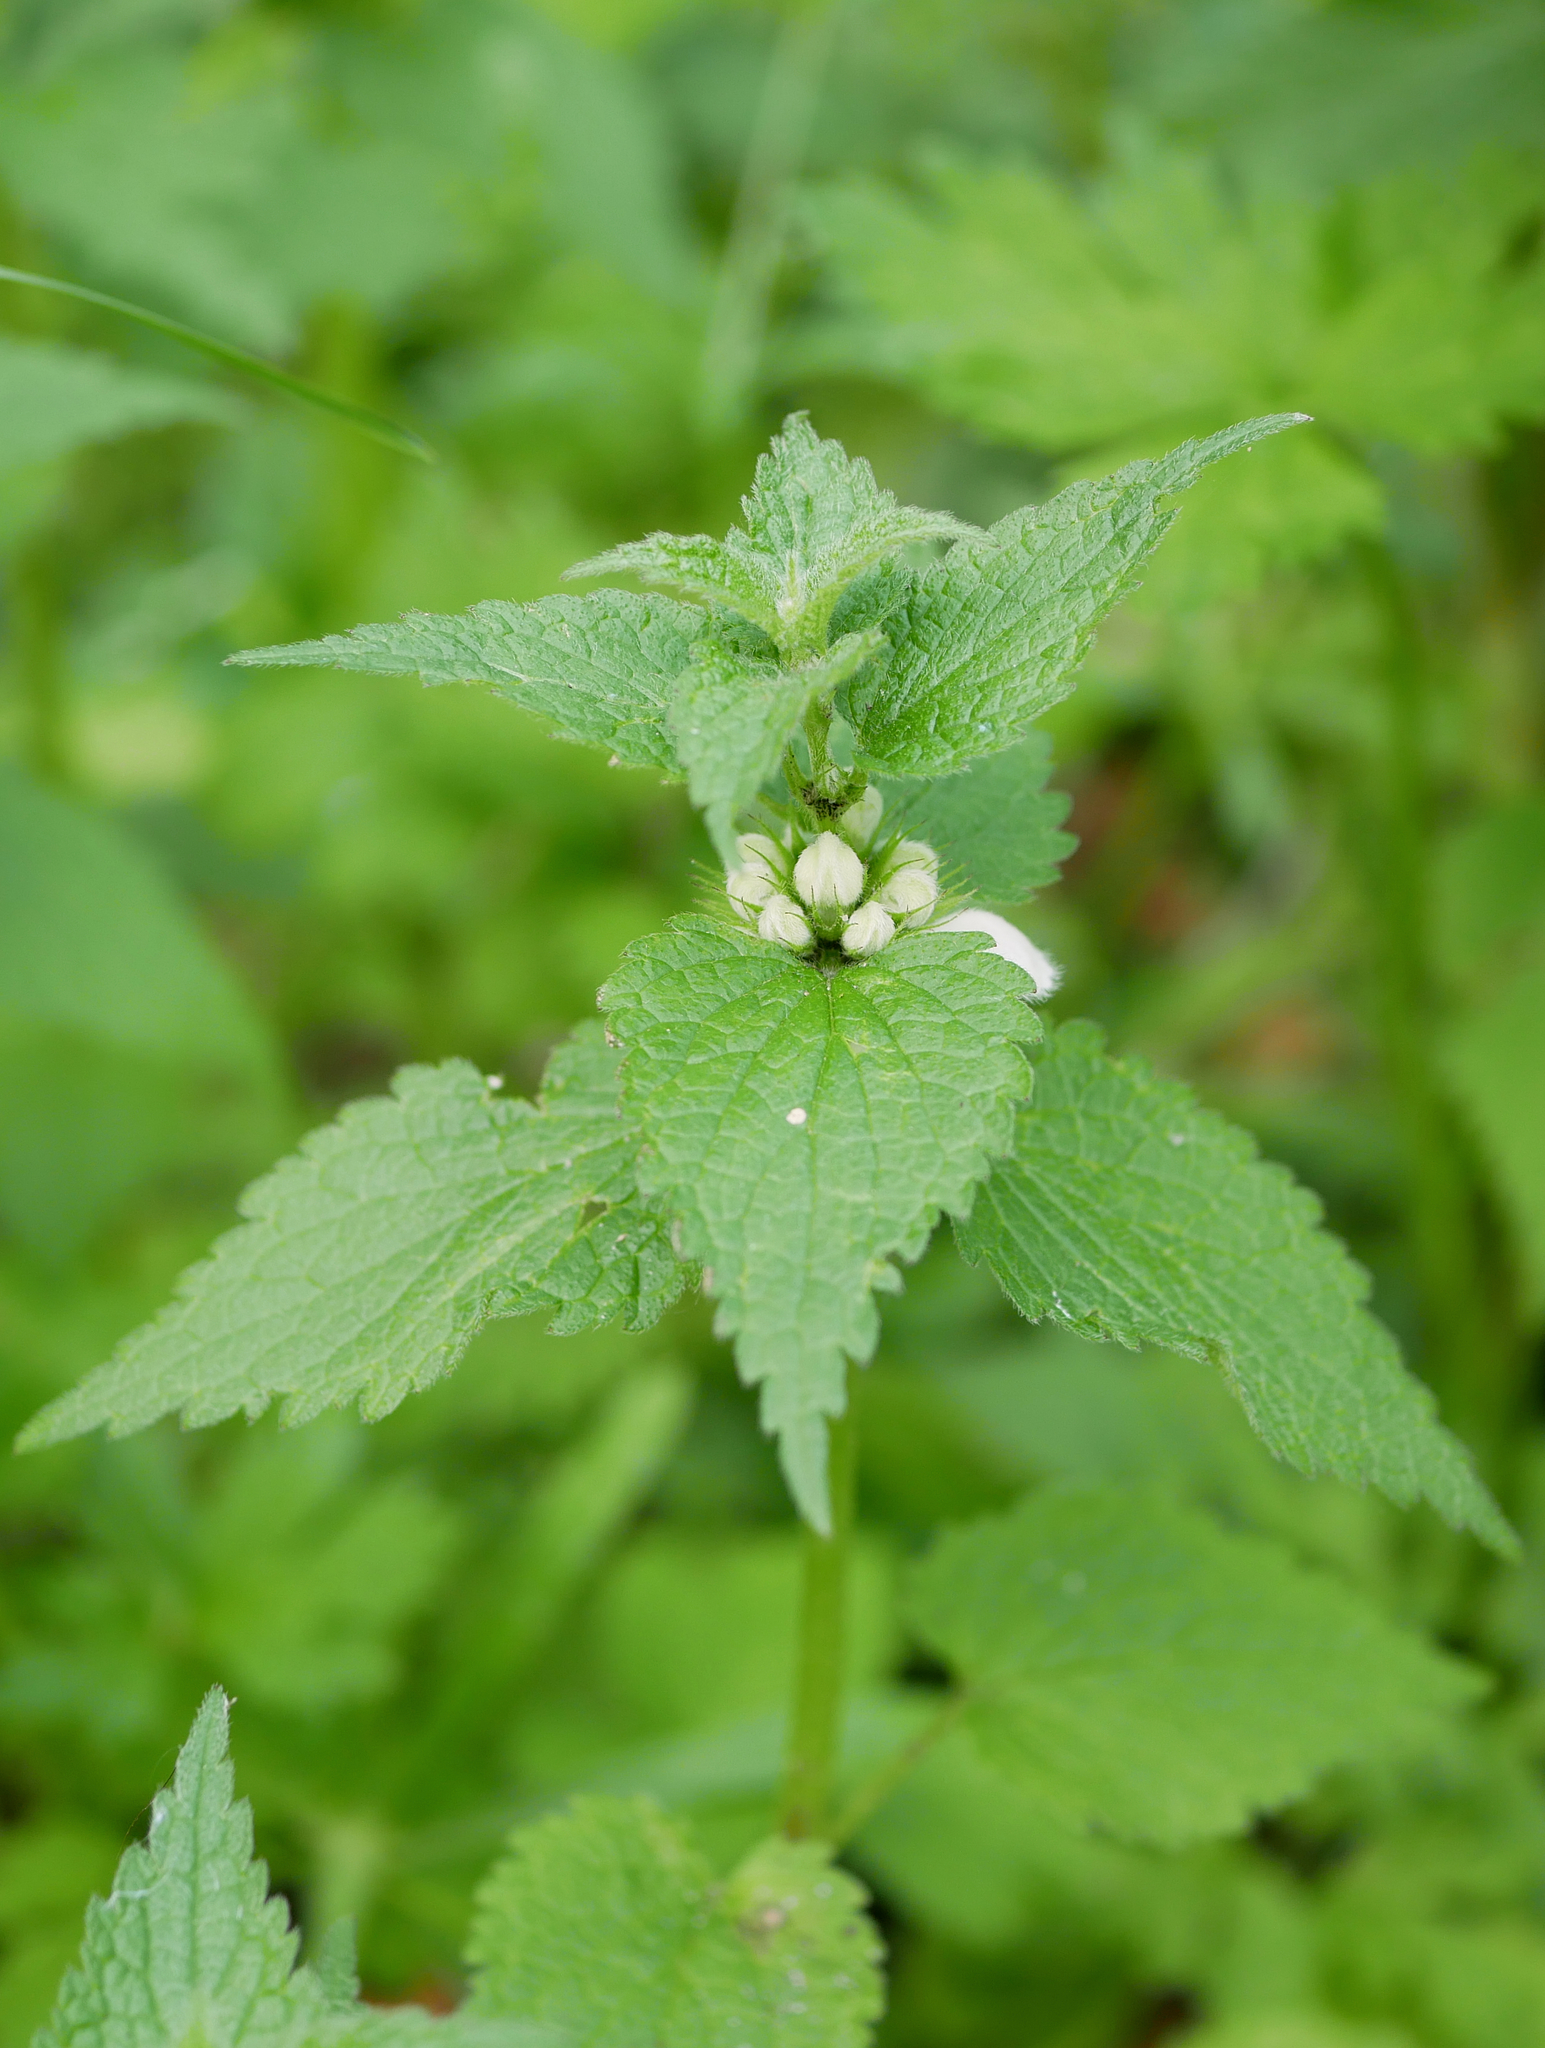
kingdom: Plantae
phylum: Tracheophyta
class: Magnoliopsida
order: Lamiales
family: Lamiaceae
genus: Lamium
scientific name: Lamium album
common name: White dead-nettle
